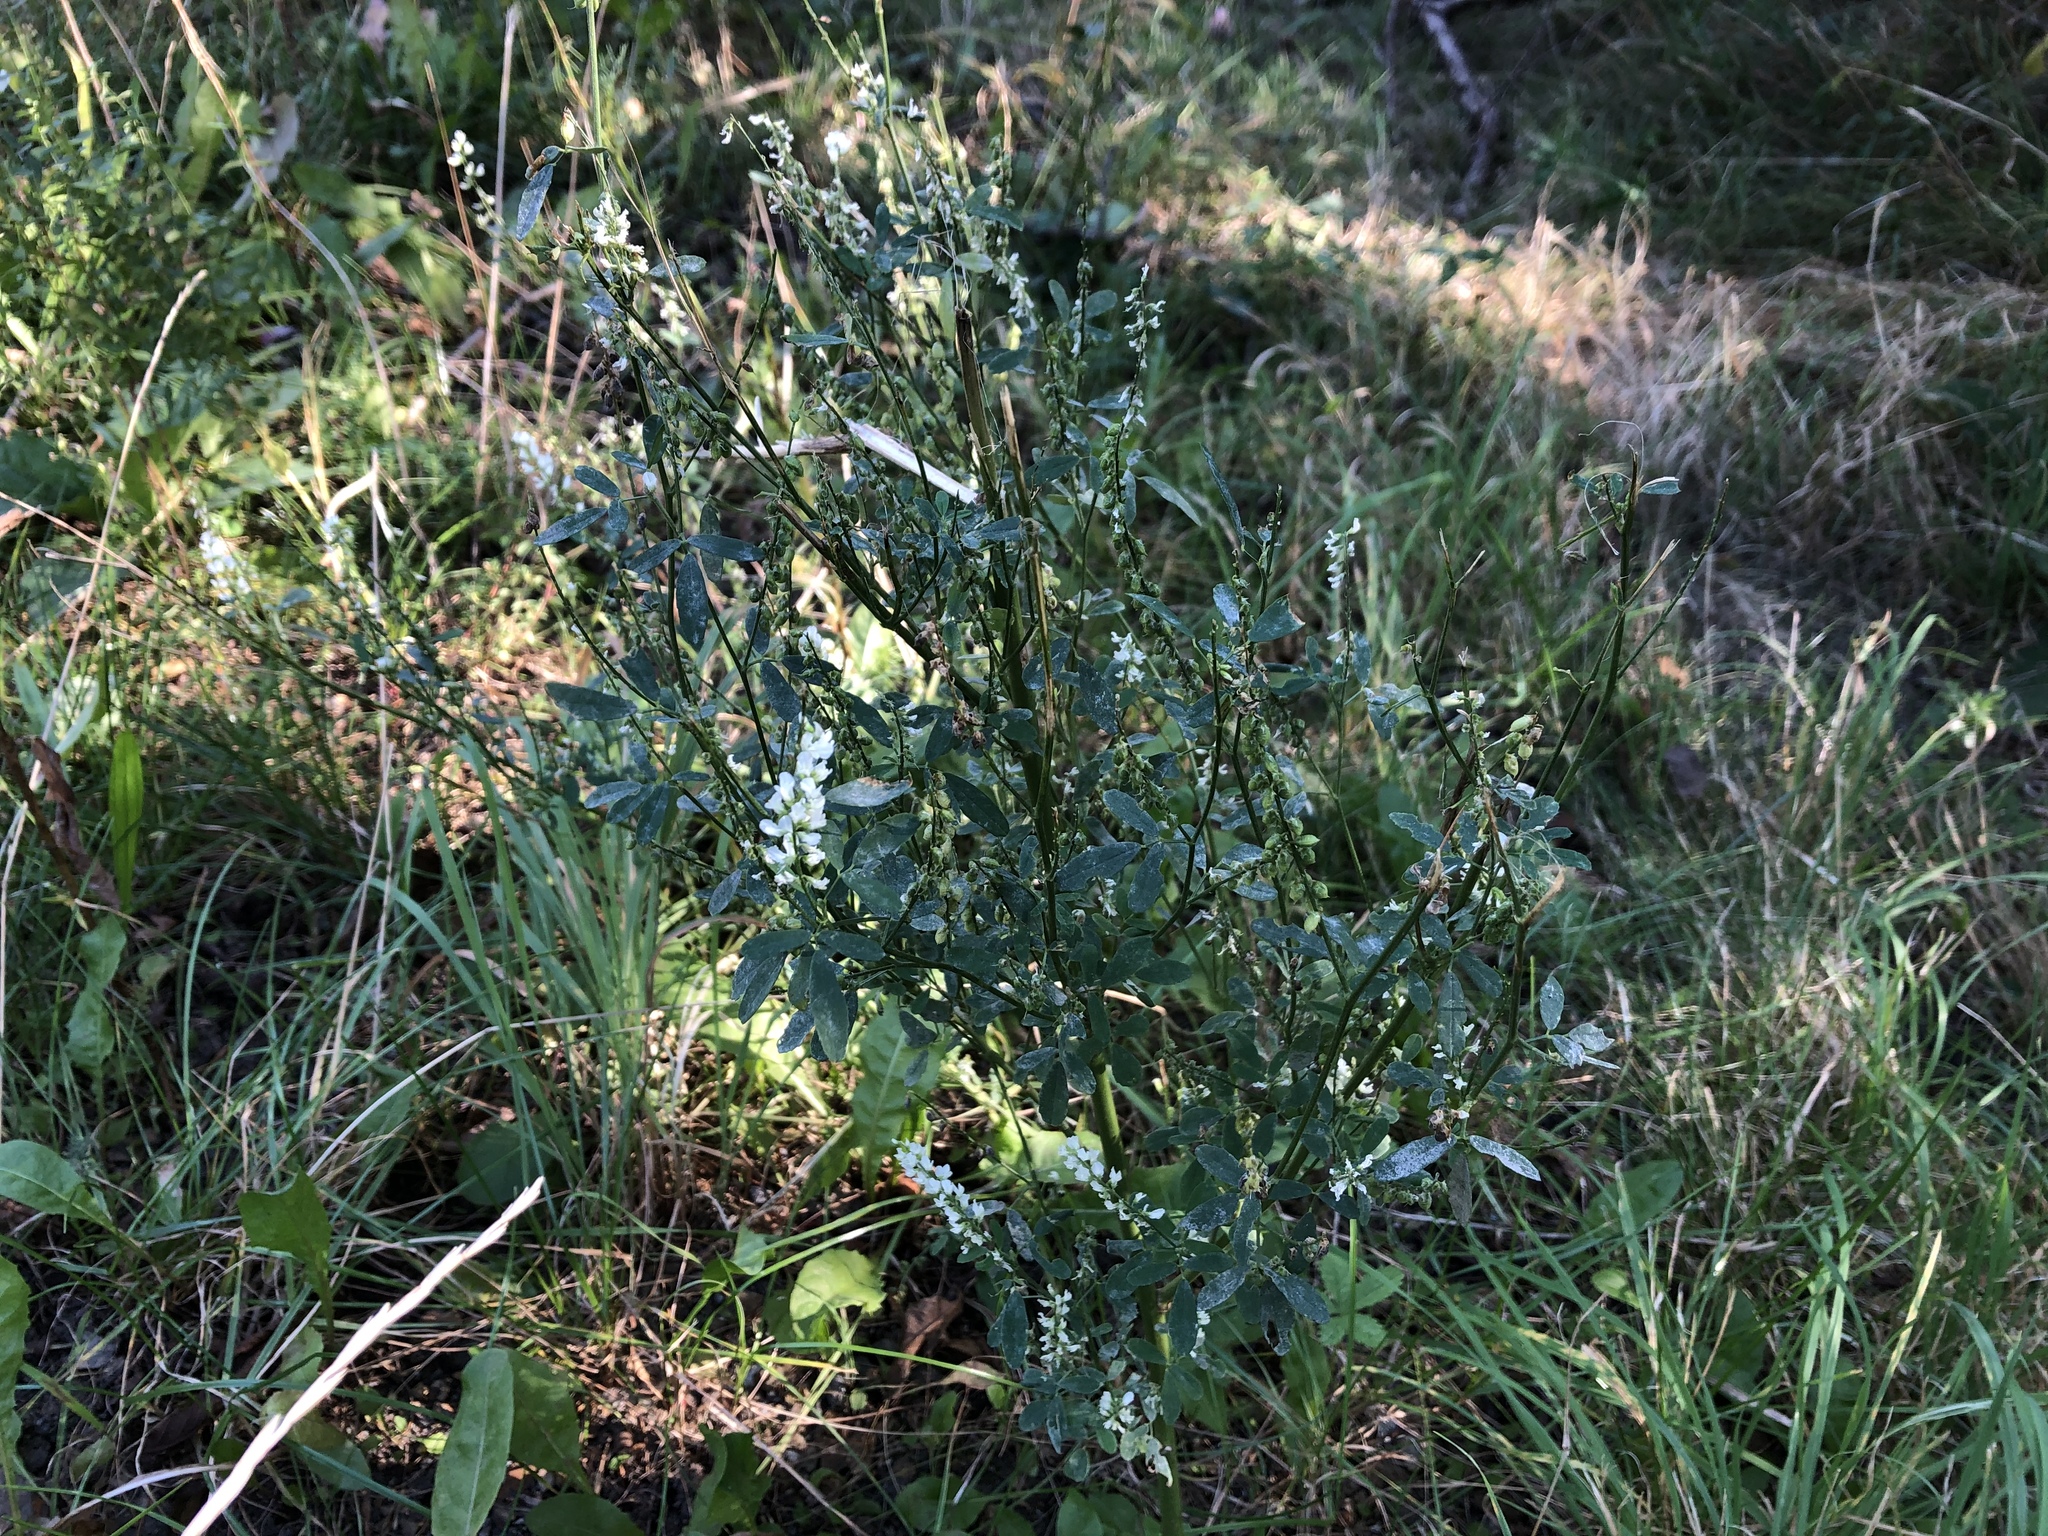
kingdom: Plantae
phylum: Tracheophyta
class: Magnoliopsida
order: Fabales
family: Fabaceae
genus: Melilotus
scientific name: Melilotus albus
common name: White melilot
